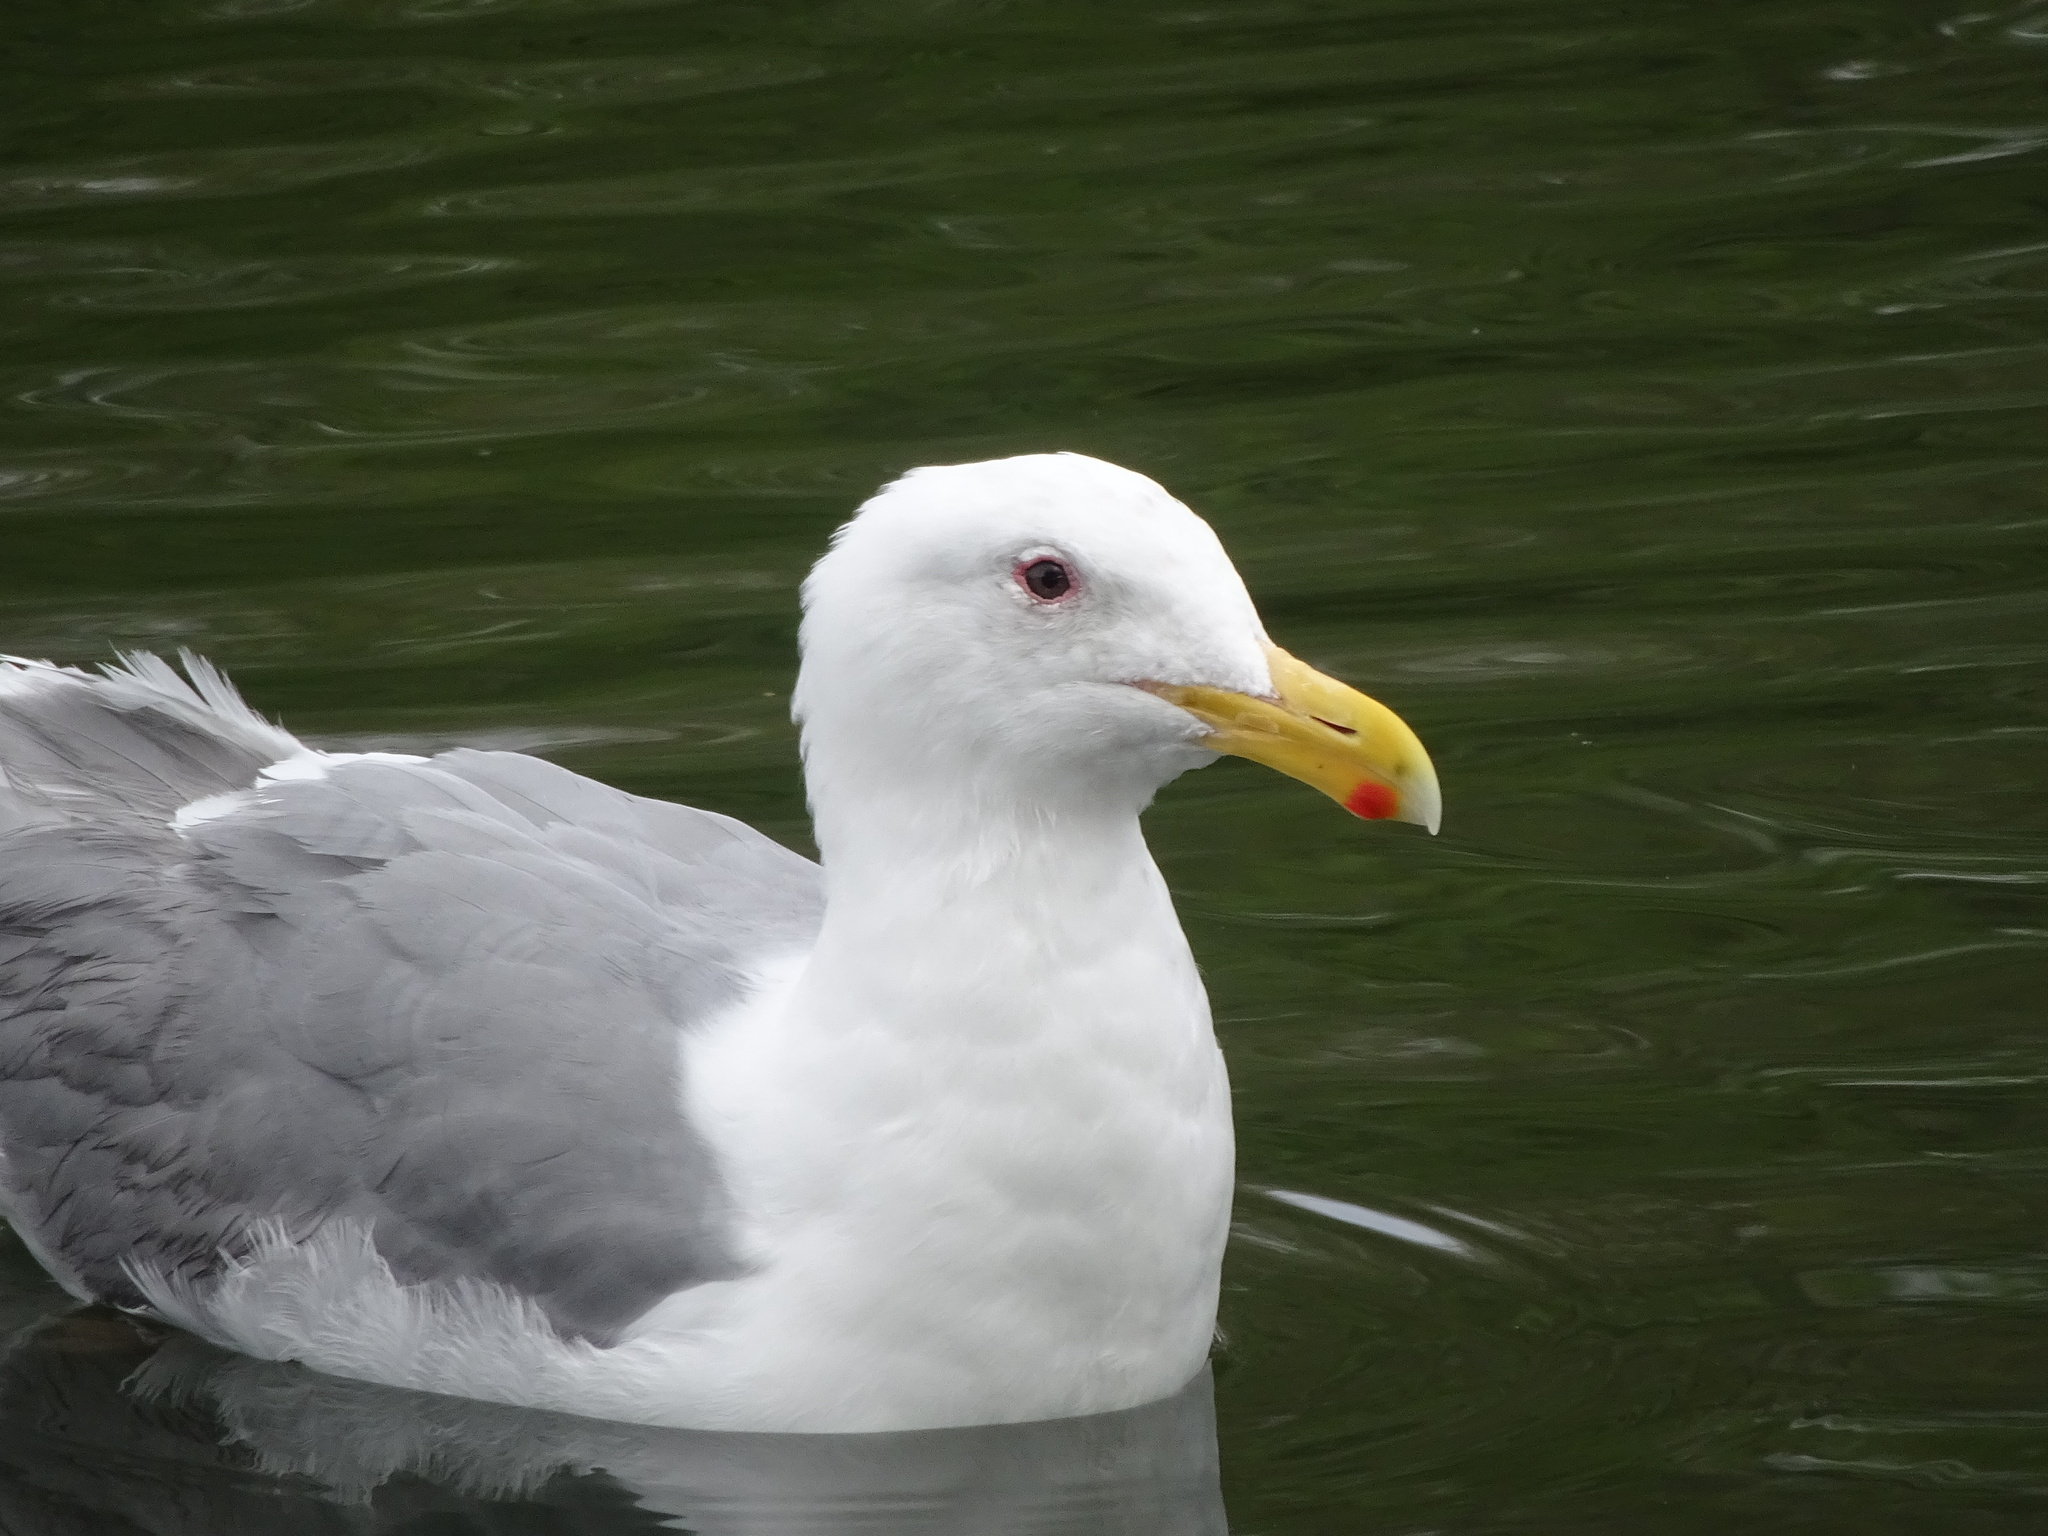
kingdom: Animalia
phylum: Chordata
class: Aves
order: Charadriiformes
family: Laridae
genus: Larus
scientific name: Larus
